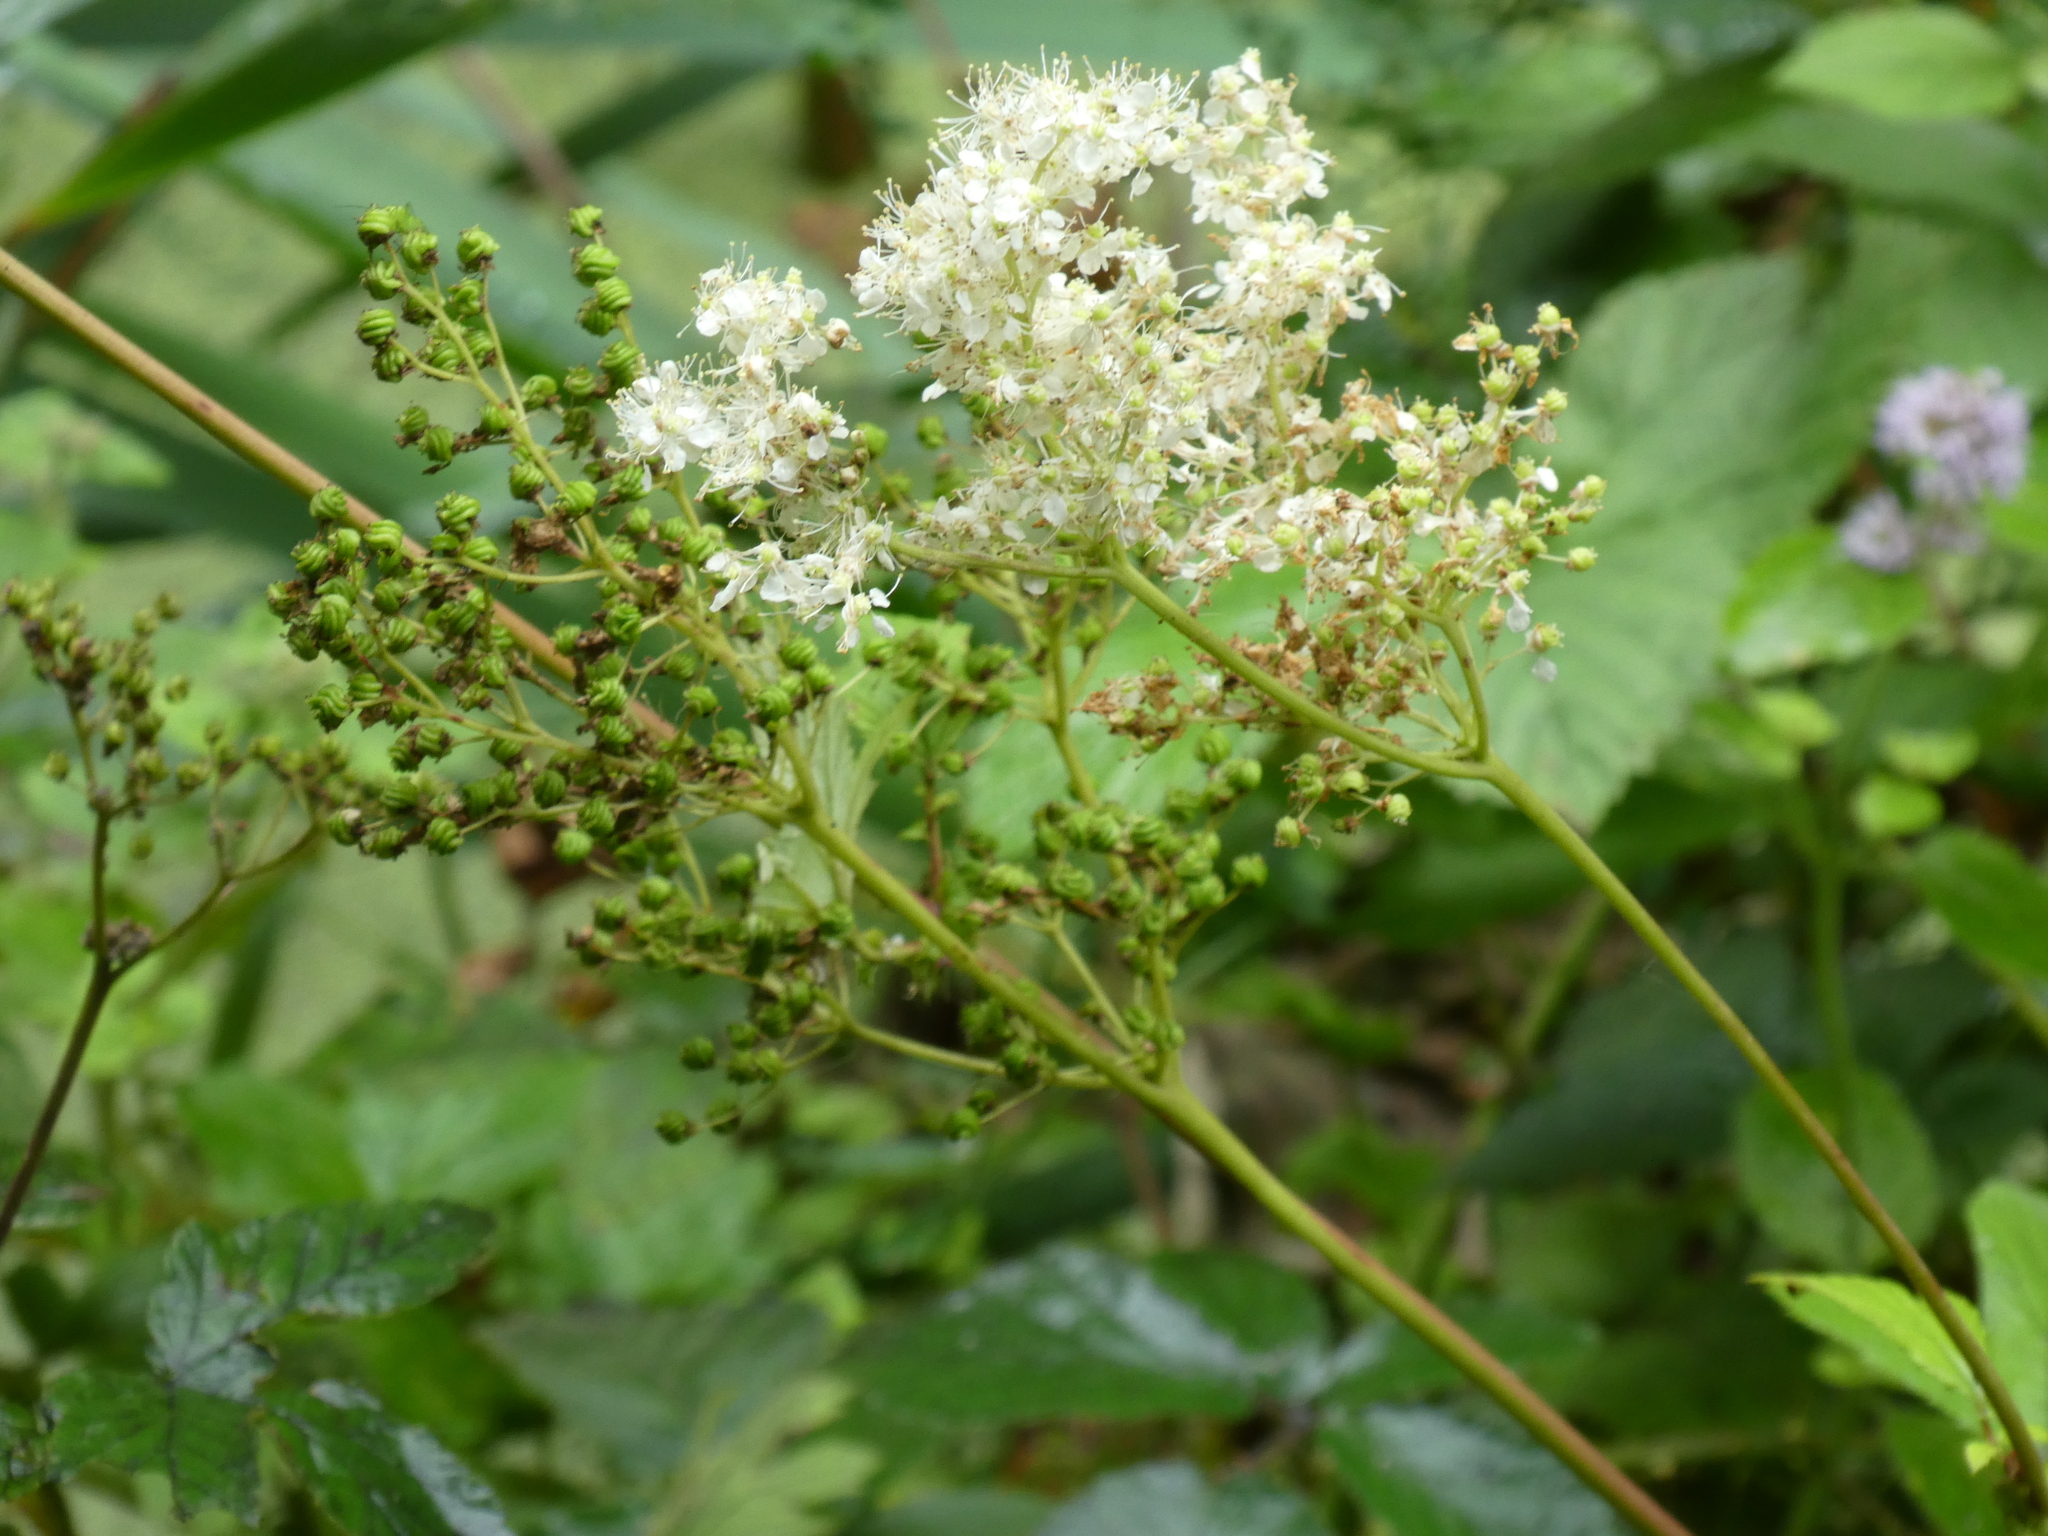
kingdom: Plantae
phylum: Tracheophyta
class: Magnoliopsida
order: Rosales
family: Rosaceae
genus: Filipendula
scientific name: Filipendula ulmaria
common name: Meadowsweet
